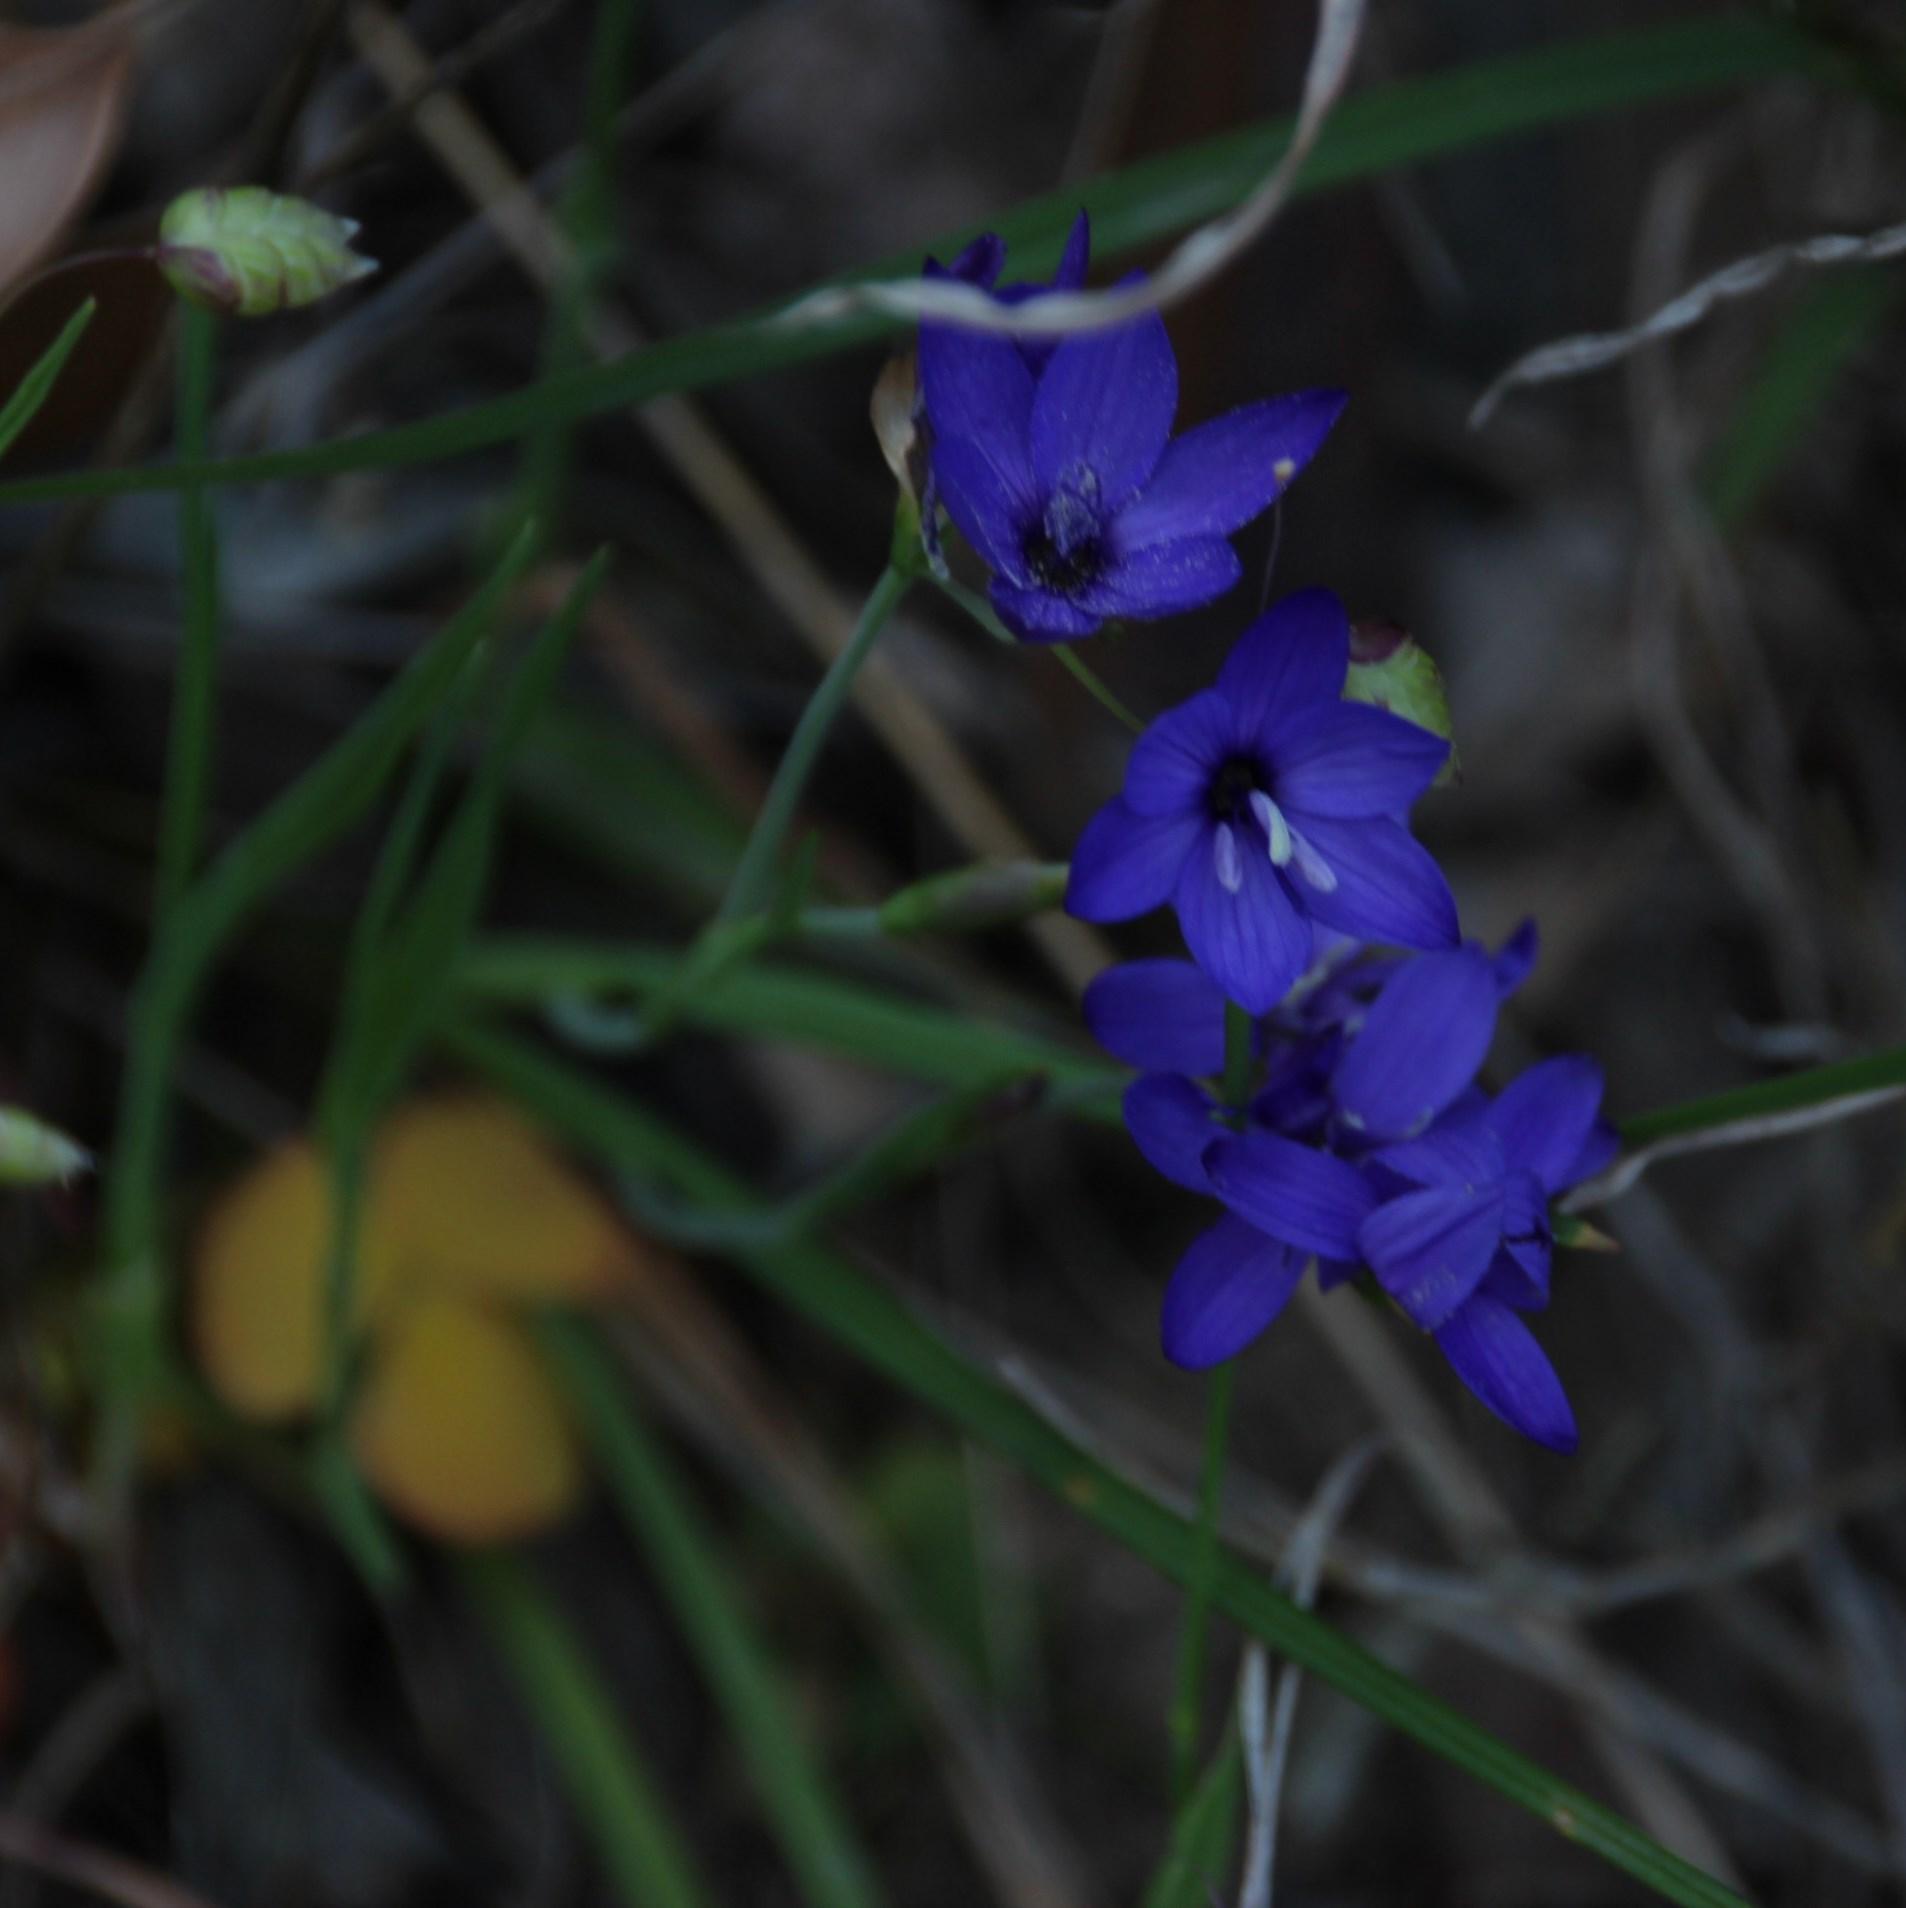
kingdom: Plantae
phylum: Tracheophyta
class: Liliopsida
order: Asparagales
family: Iridaceae
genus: Geissorhiza
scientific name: Geissorhiza aspera
